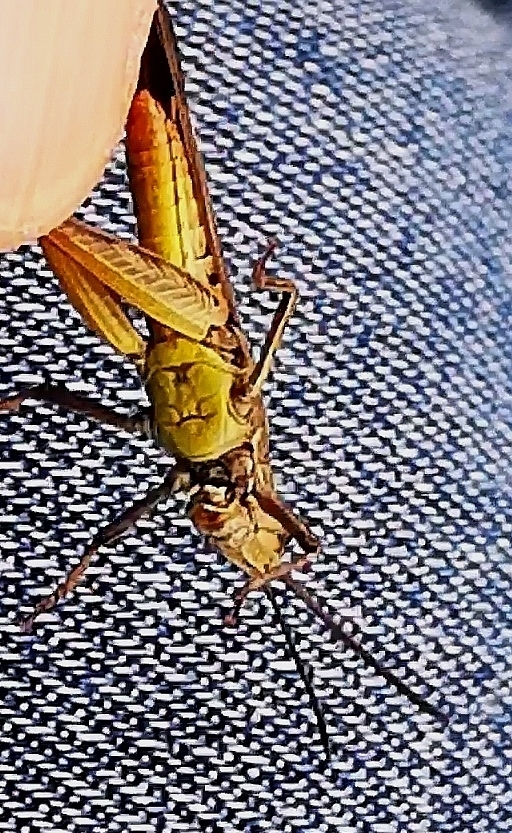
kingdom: Animalia
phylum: Arthropoda
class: Insecta
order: Orthoptera
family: Acrididae
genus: Chorthippus
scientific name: Chorthippus brunneus
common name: Field grasshopper
